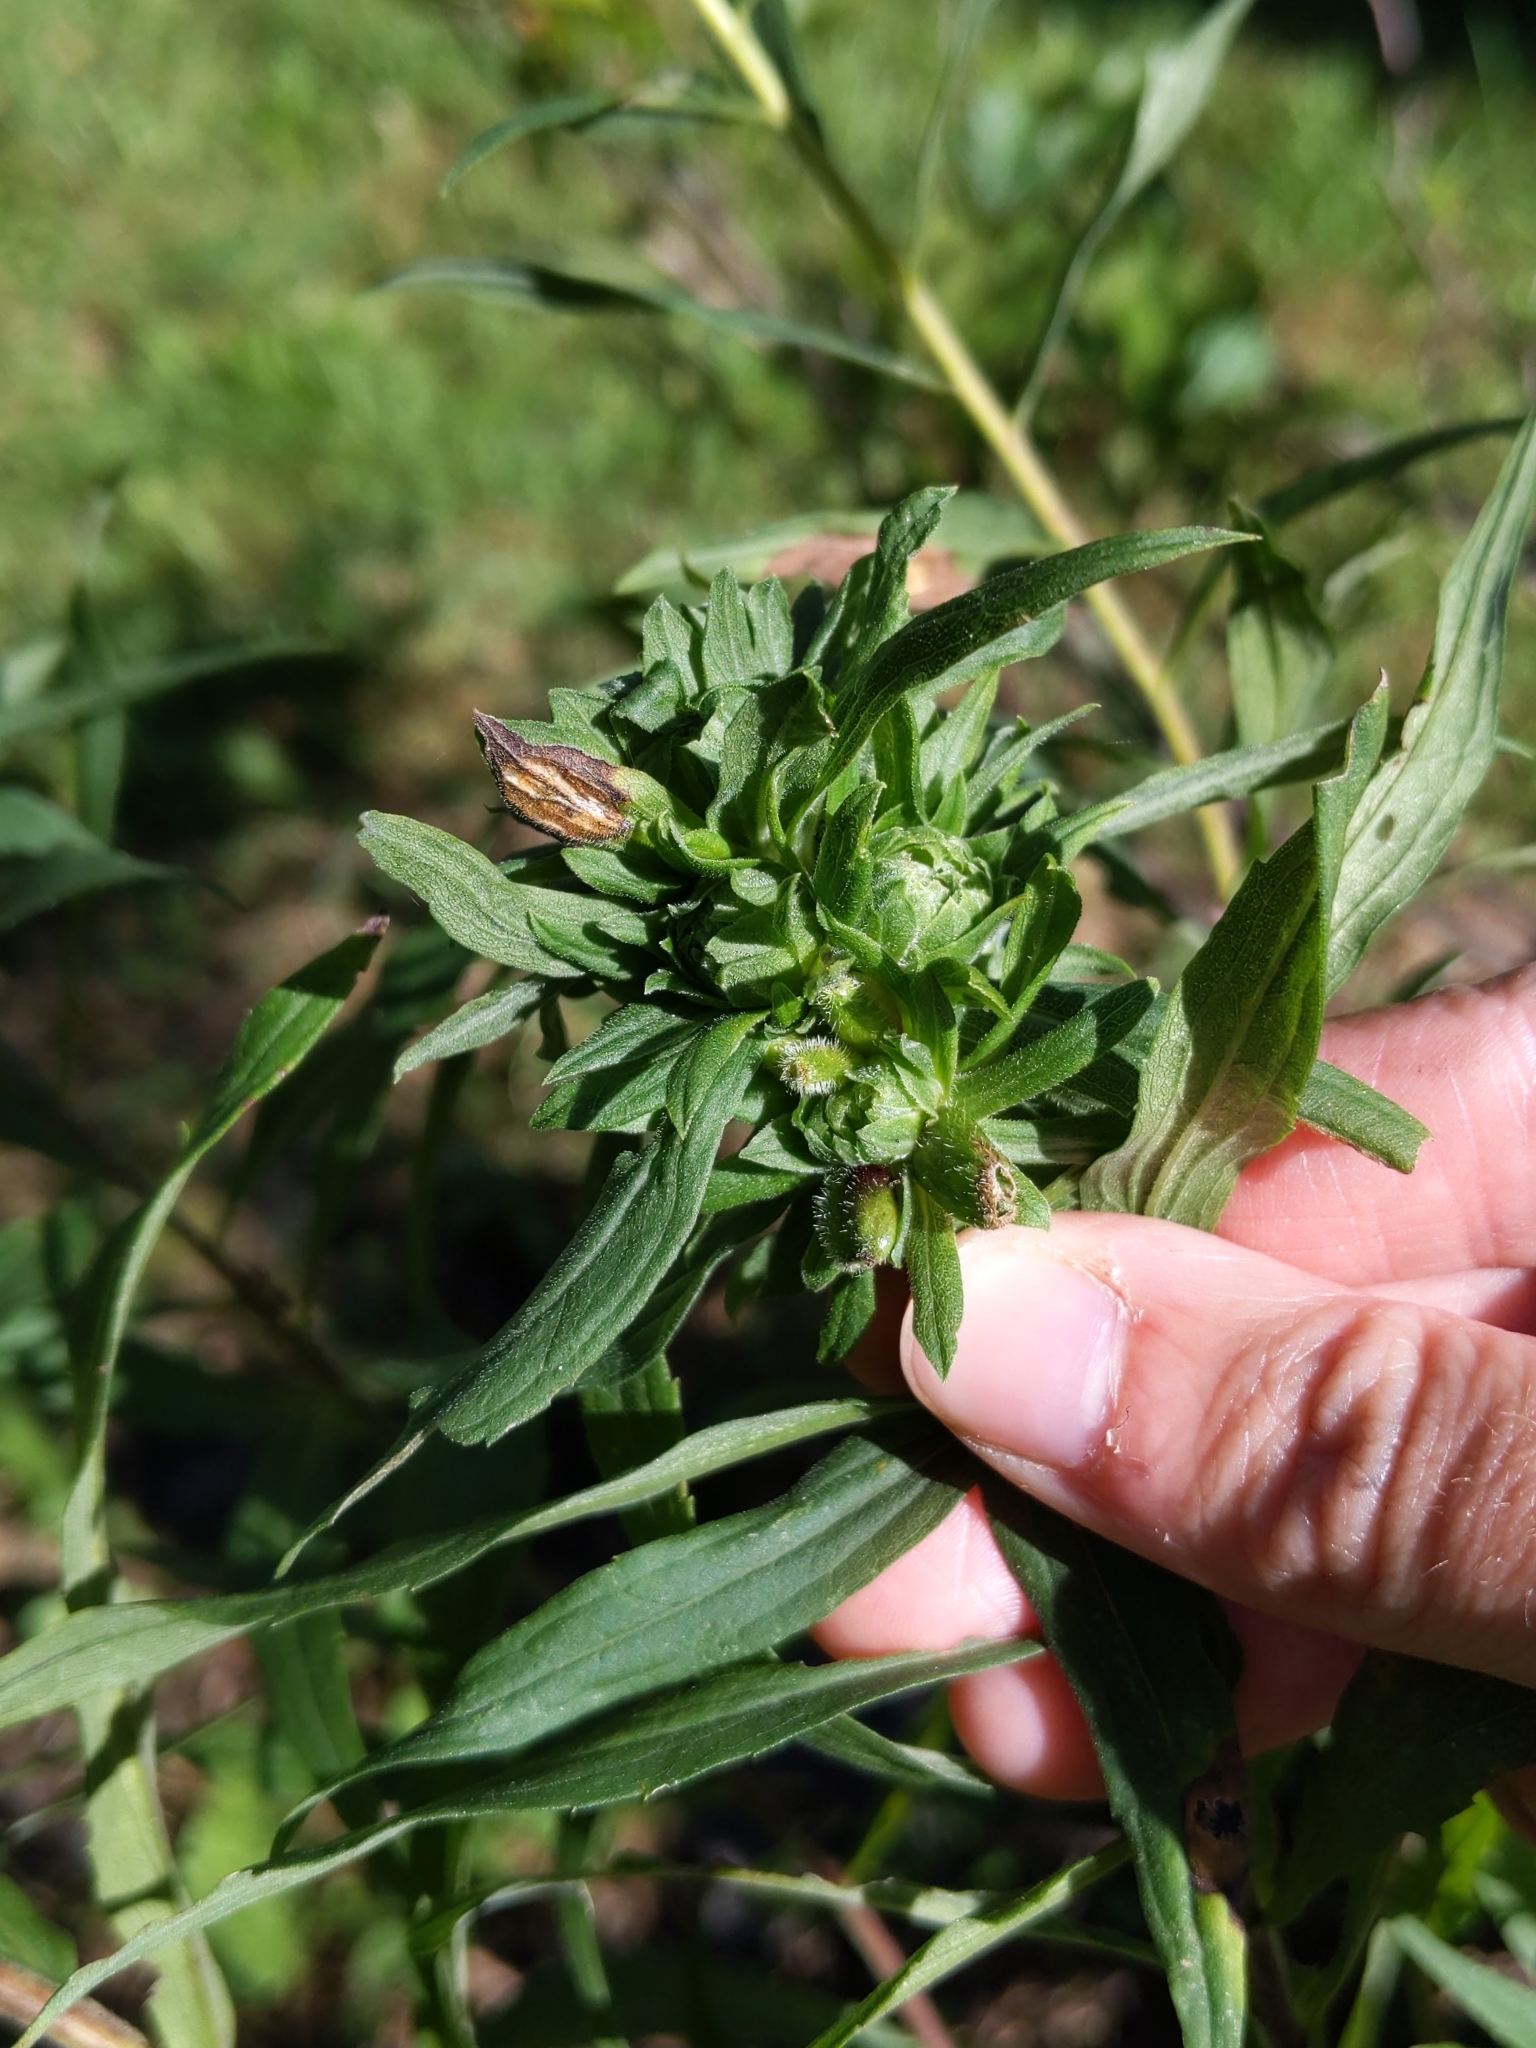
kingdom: Animalia
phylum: Arthropoda
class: Insecta
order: Diptera
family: Cecidomyiidae
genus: Rhopalomyia
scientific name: Rhopalomyia anthophila
